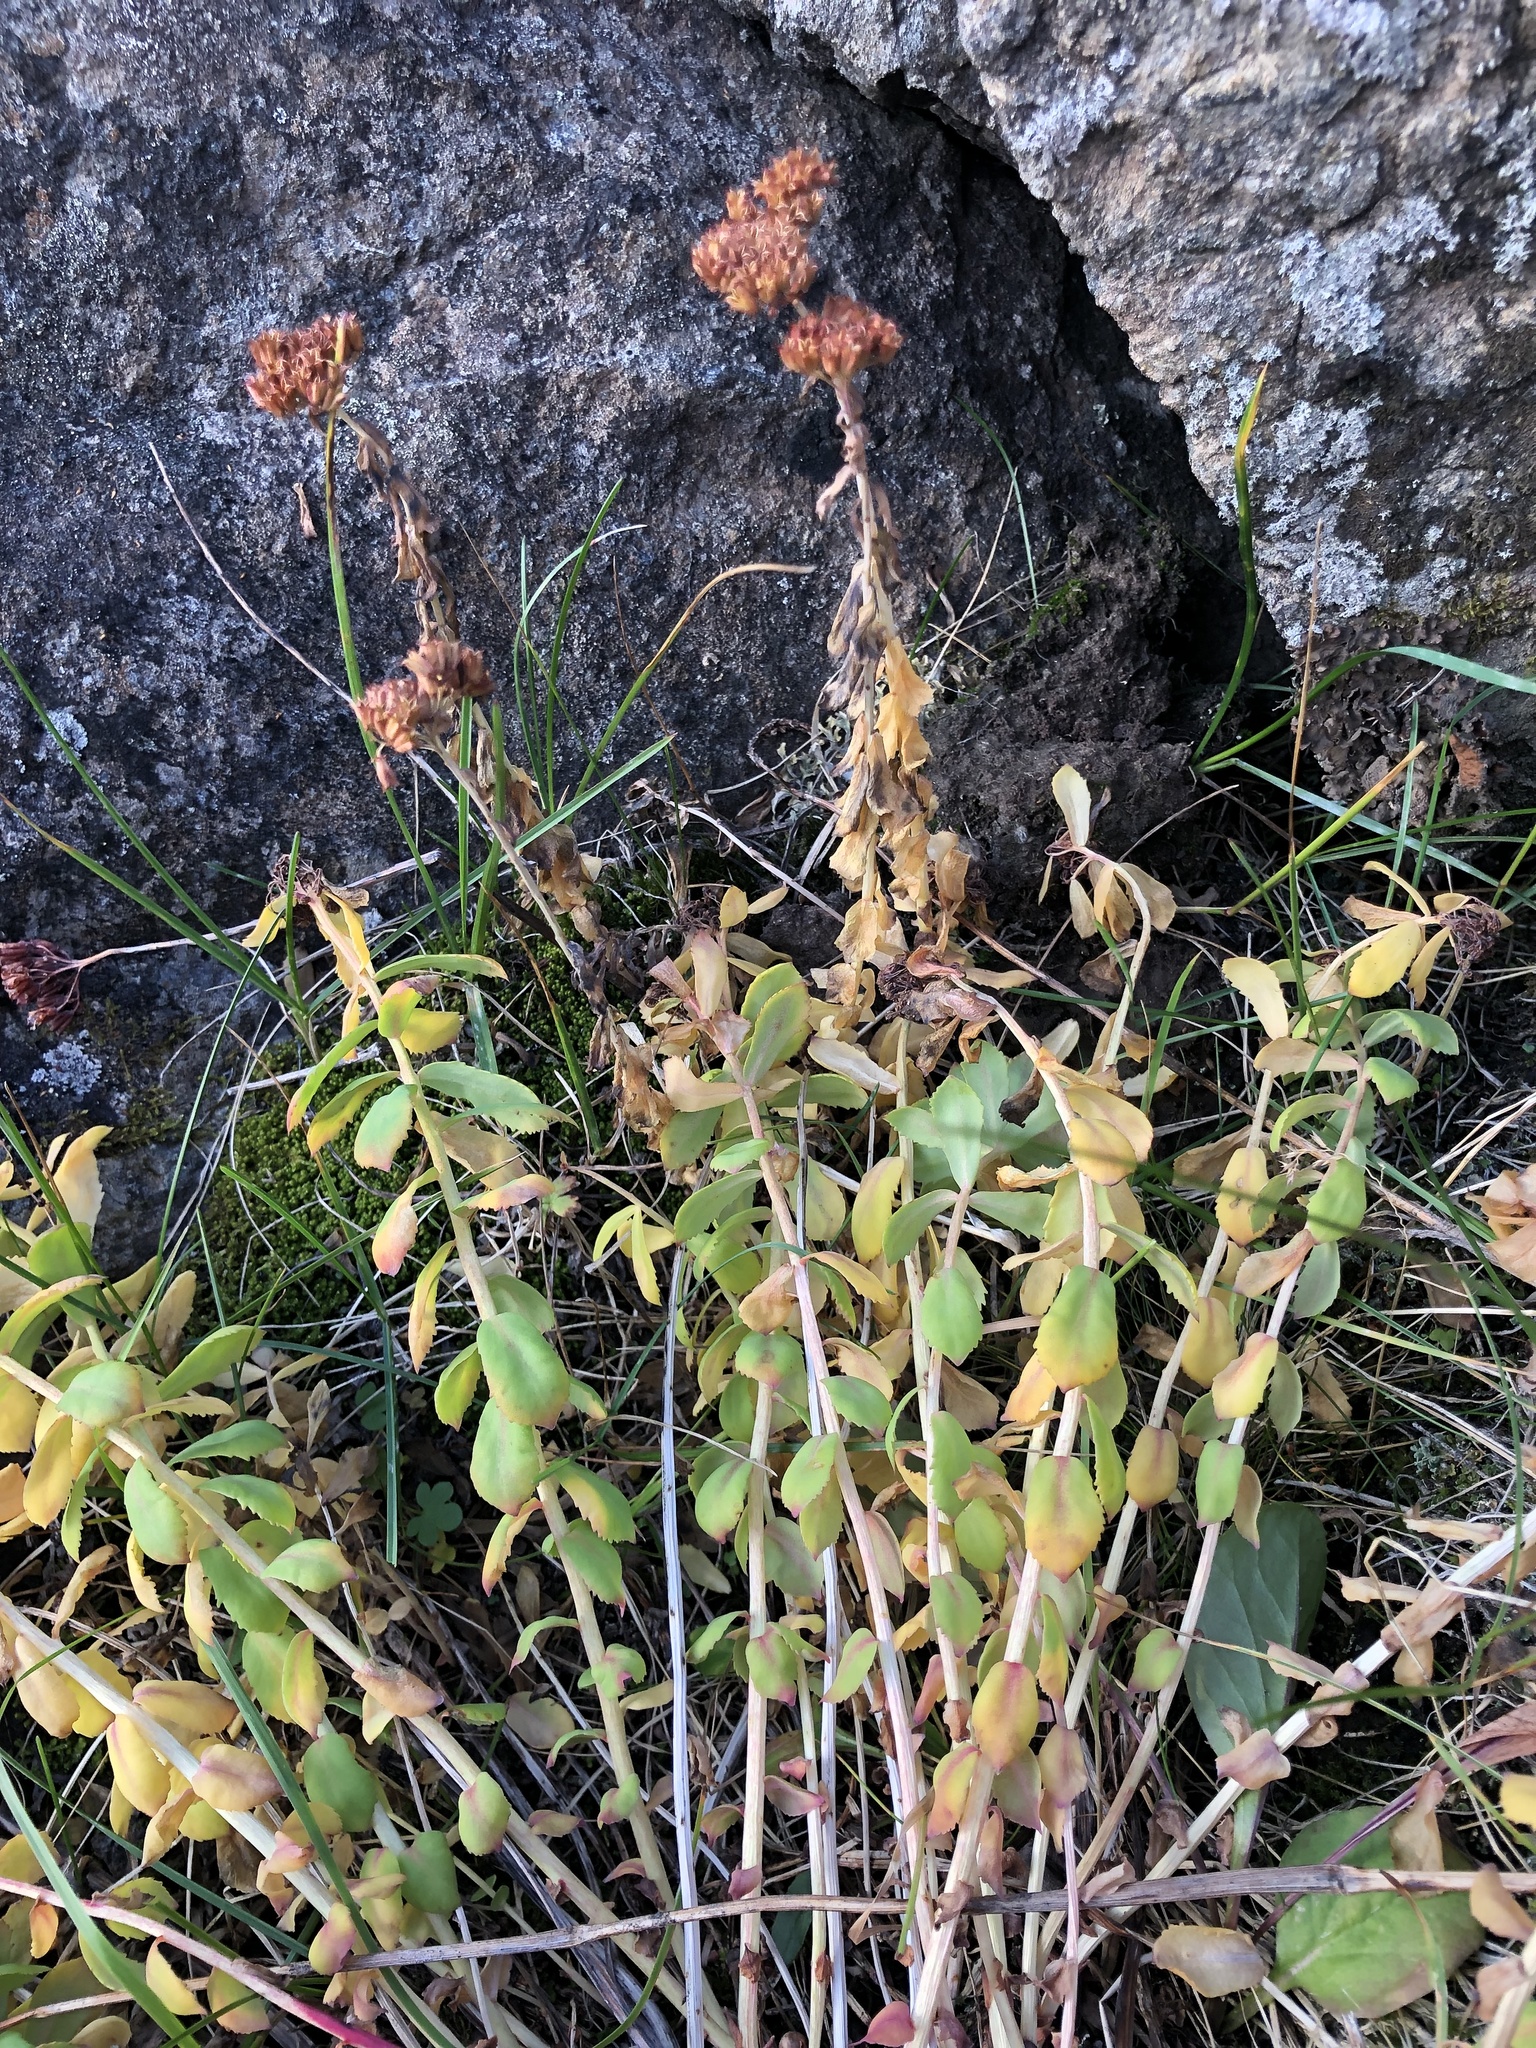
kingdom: Plantae
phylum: Tracheophyta
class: Magnoliopsida
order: Saxifragales
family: Crassulaceae
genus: Rhodiola
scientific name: Rhodiola rosea
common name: Roseroot
